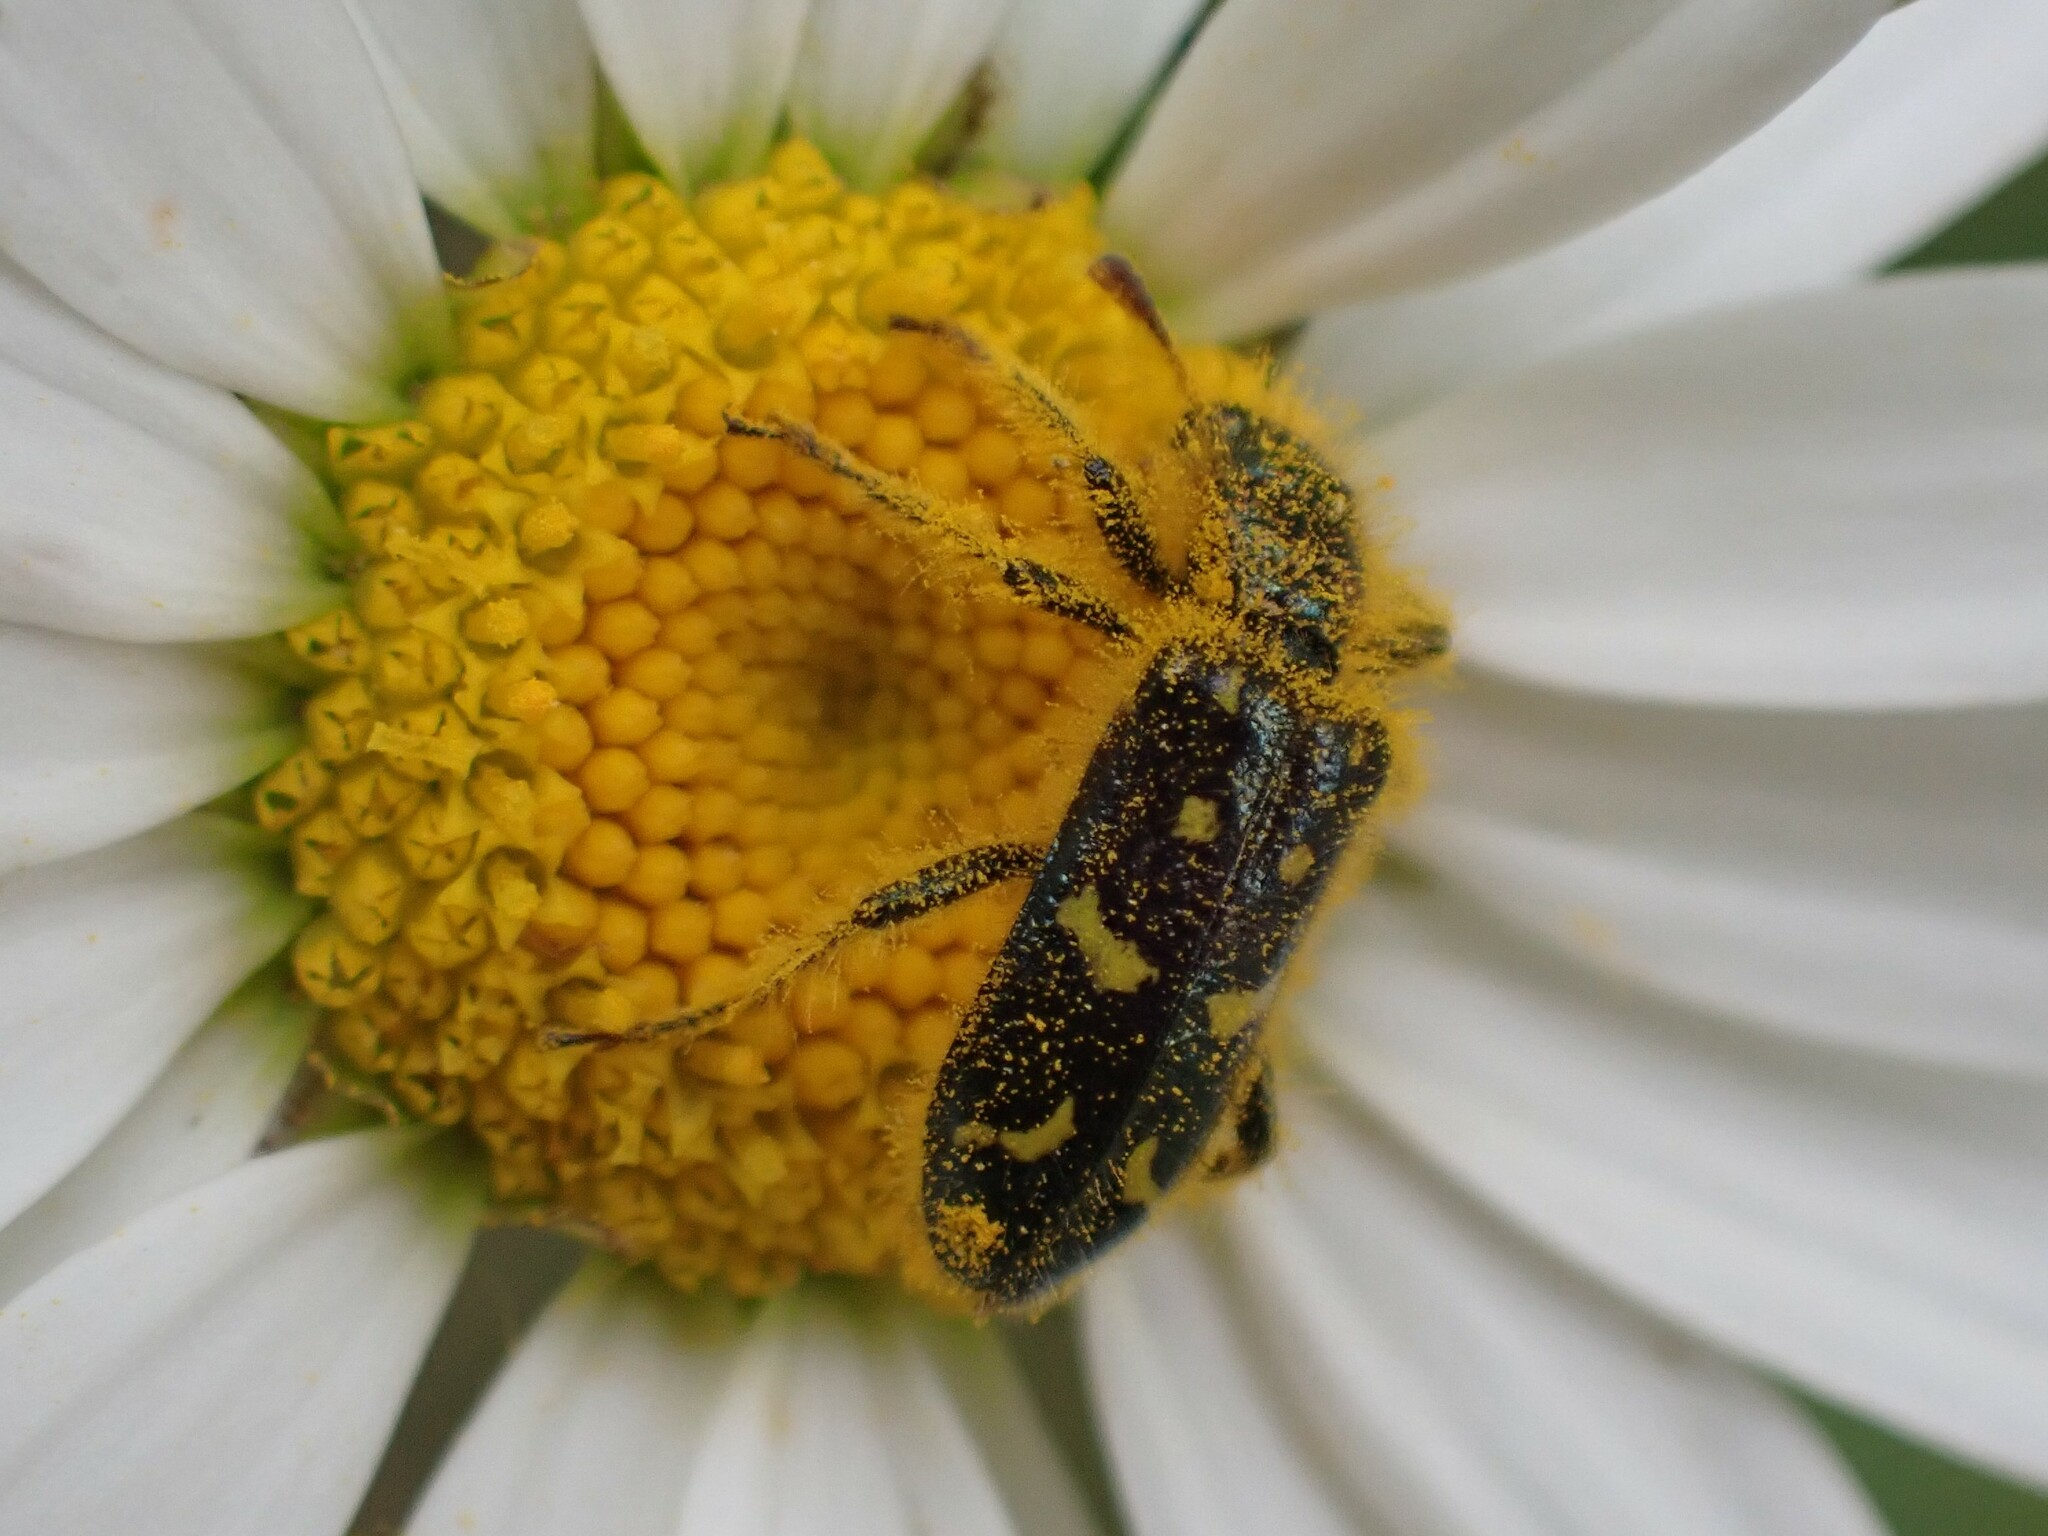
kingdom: Animalia
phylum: Arthropoda
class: Insecta
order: Coleoptera
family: Cleridae
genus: Trichodes
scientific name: Trichodes ornatus
